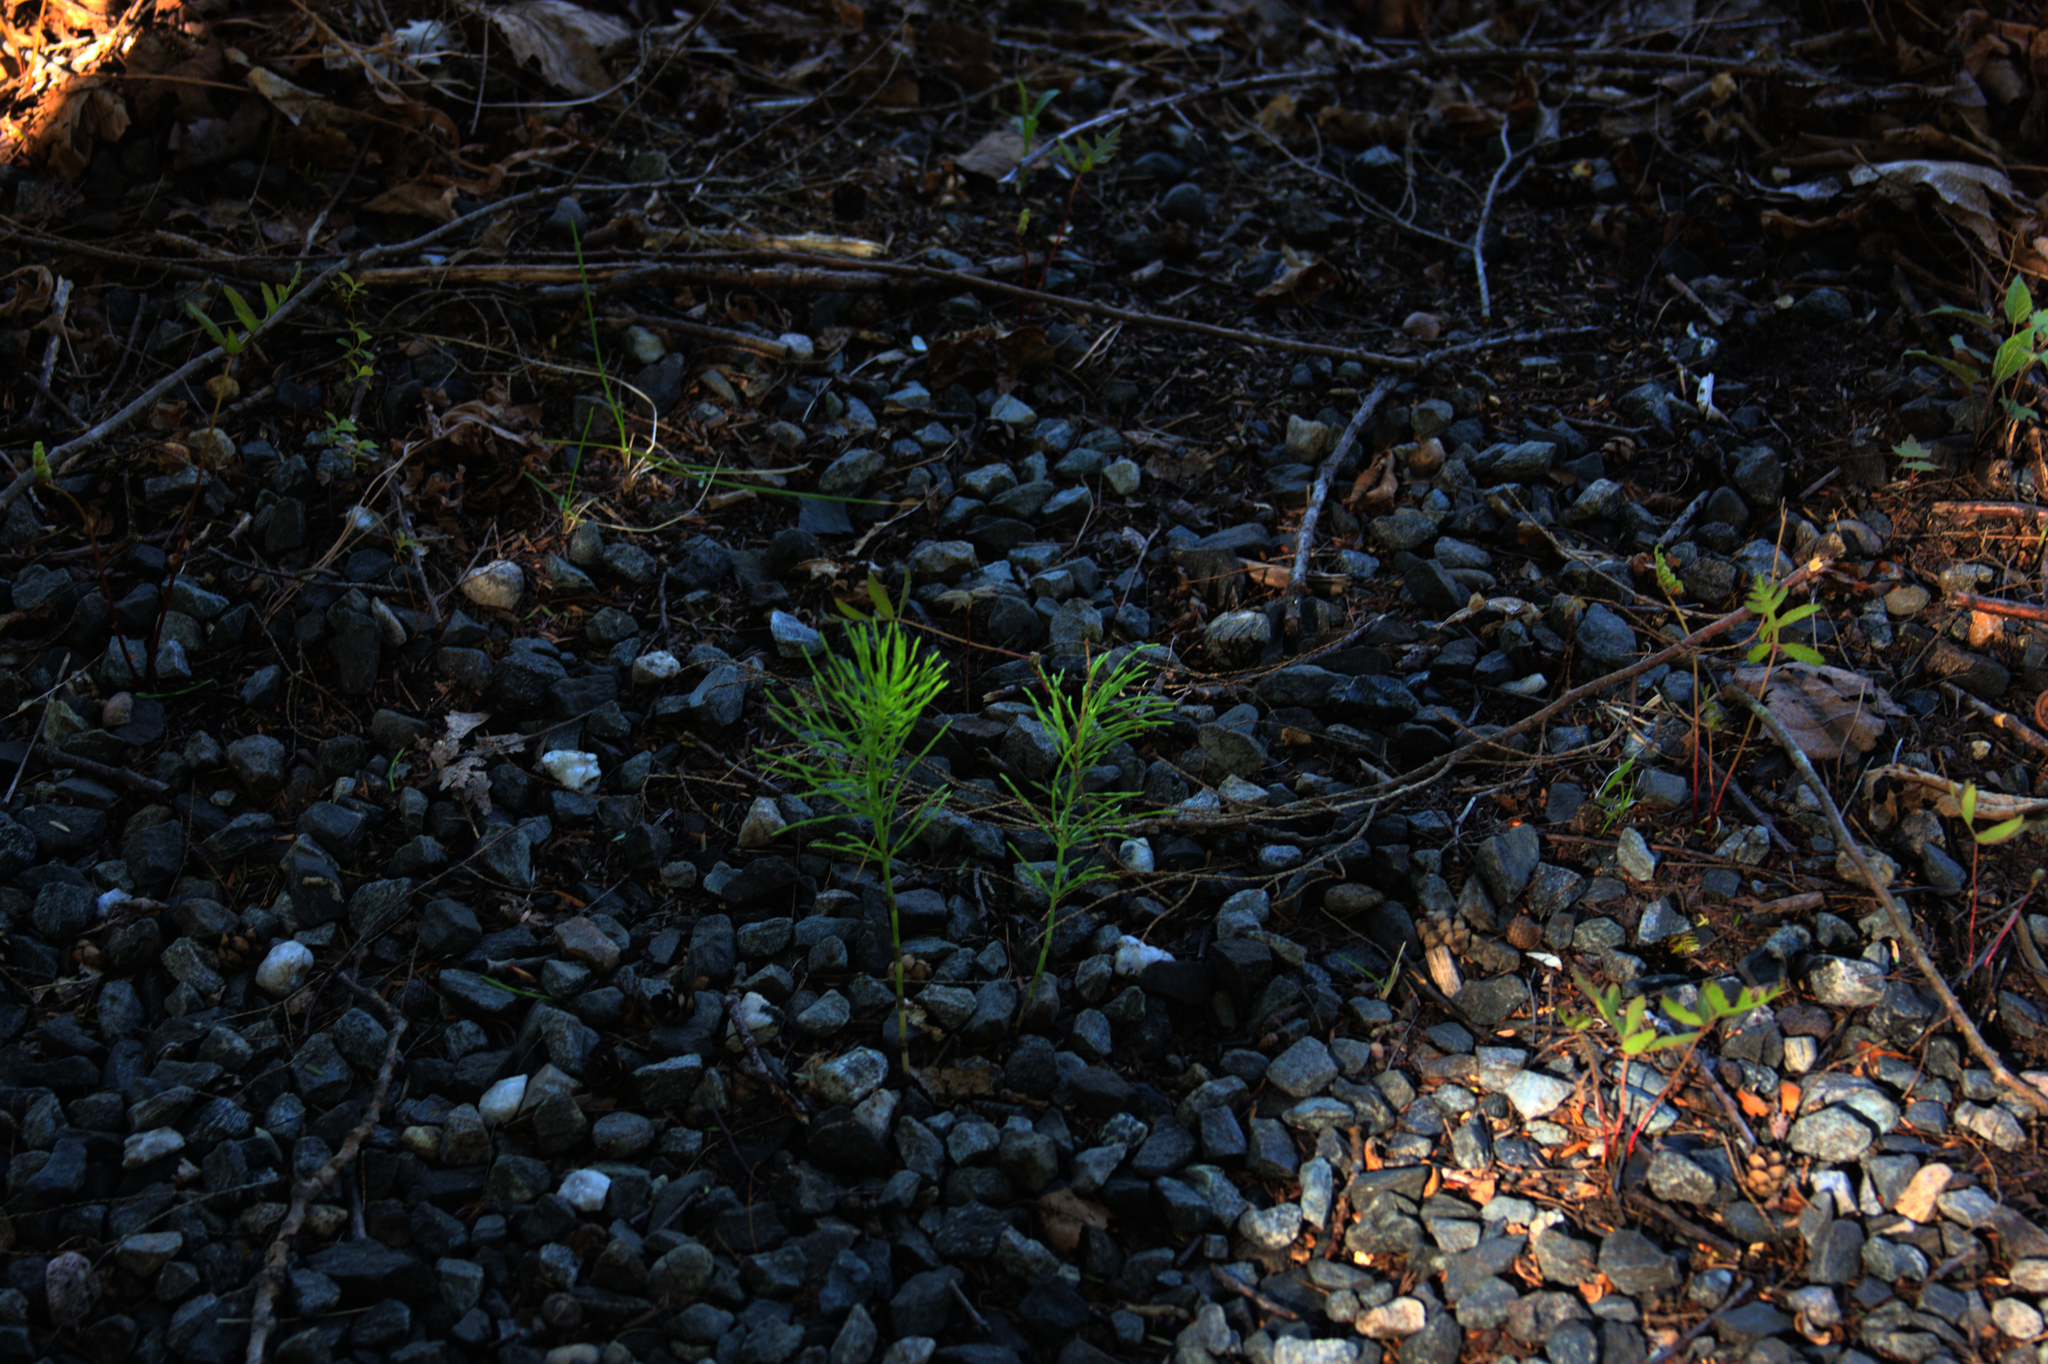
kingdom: Plantae
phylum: Tracheophyta
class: Polypodiopsida
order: Equisetales
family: Equisetaceae
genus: Equisetum
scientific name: Equisetum arvense
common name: Field horsetail
